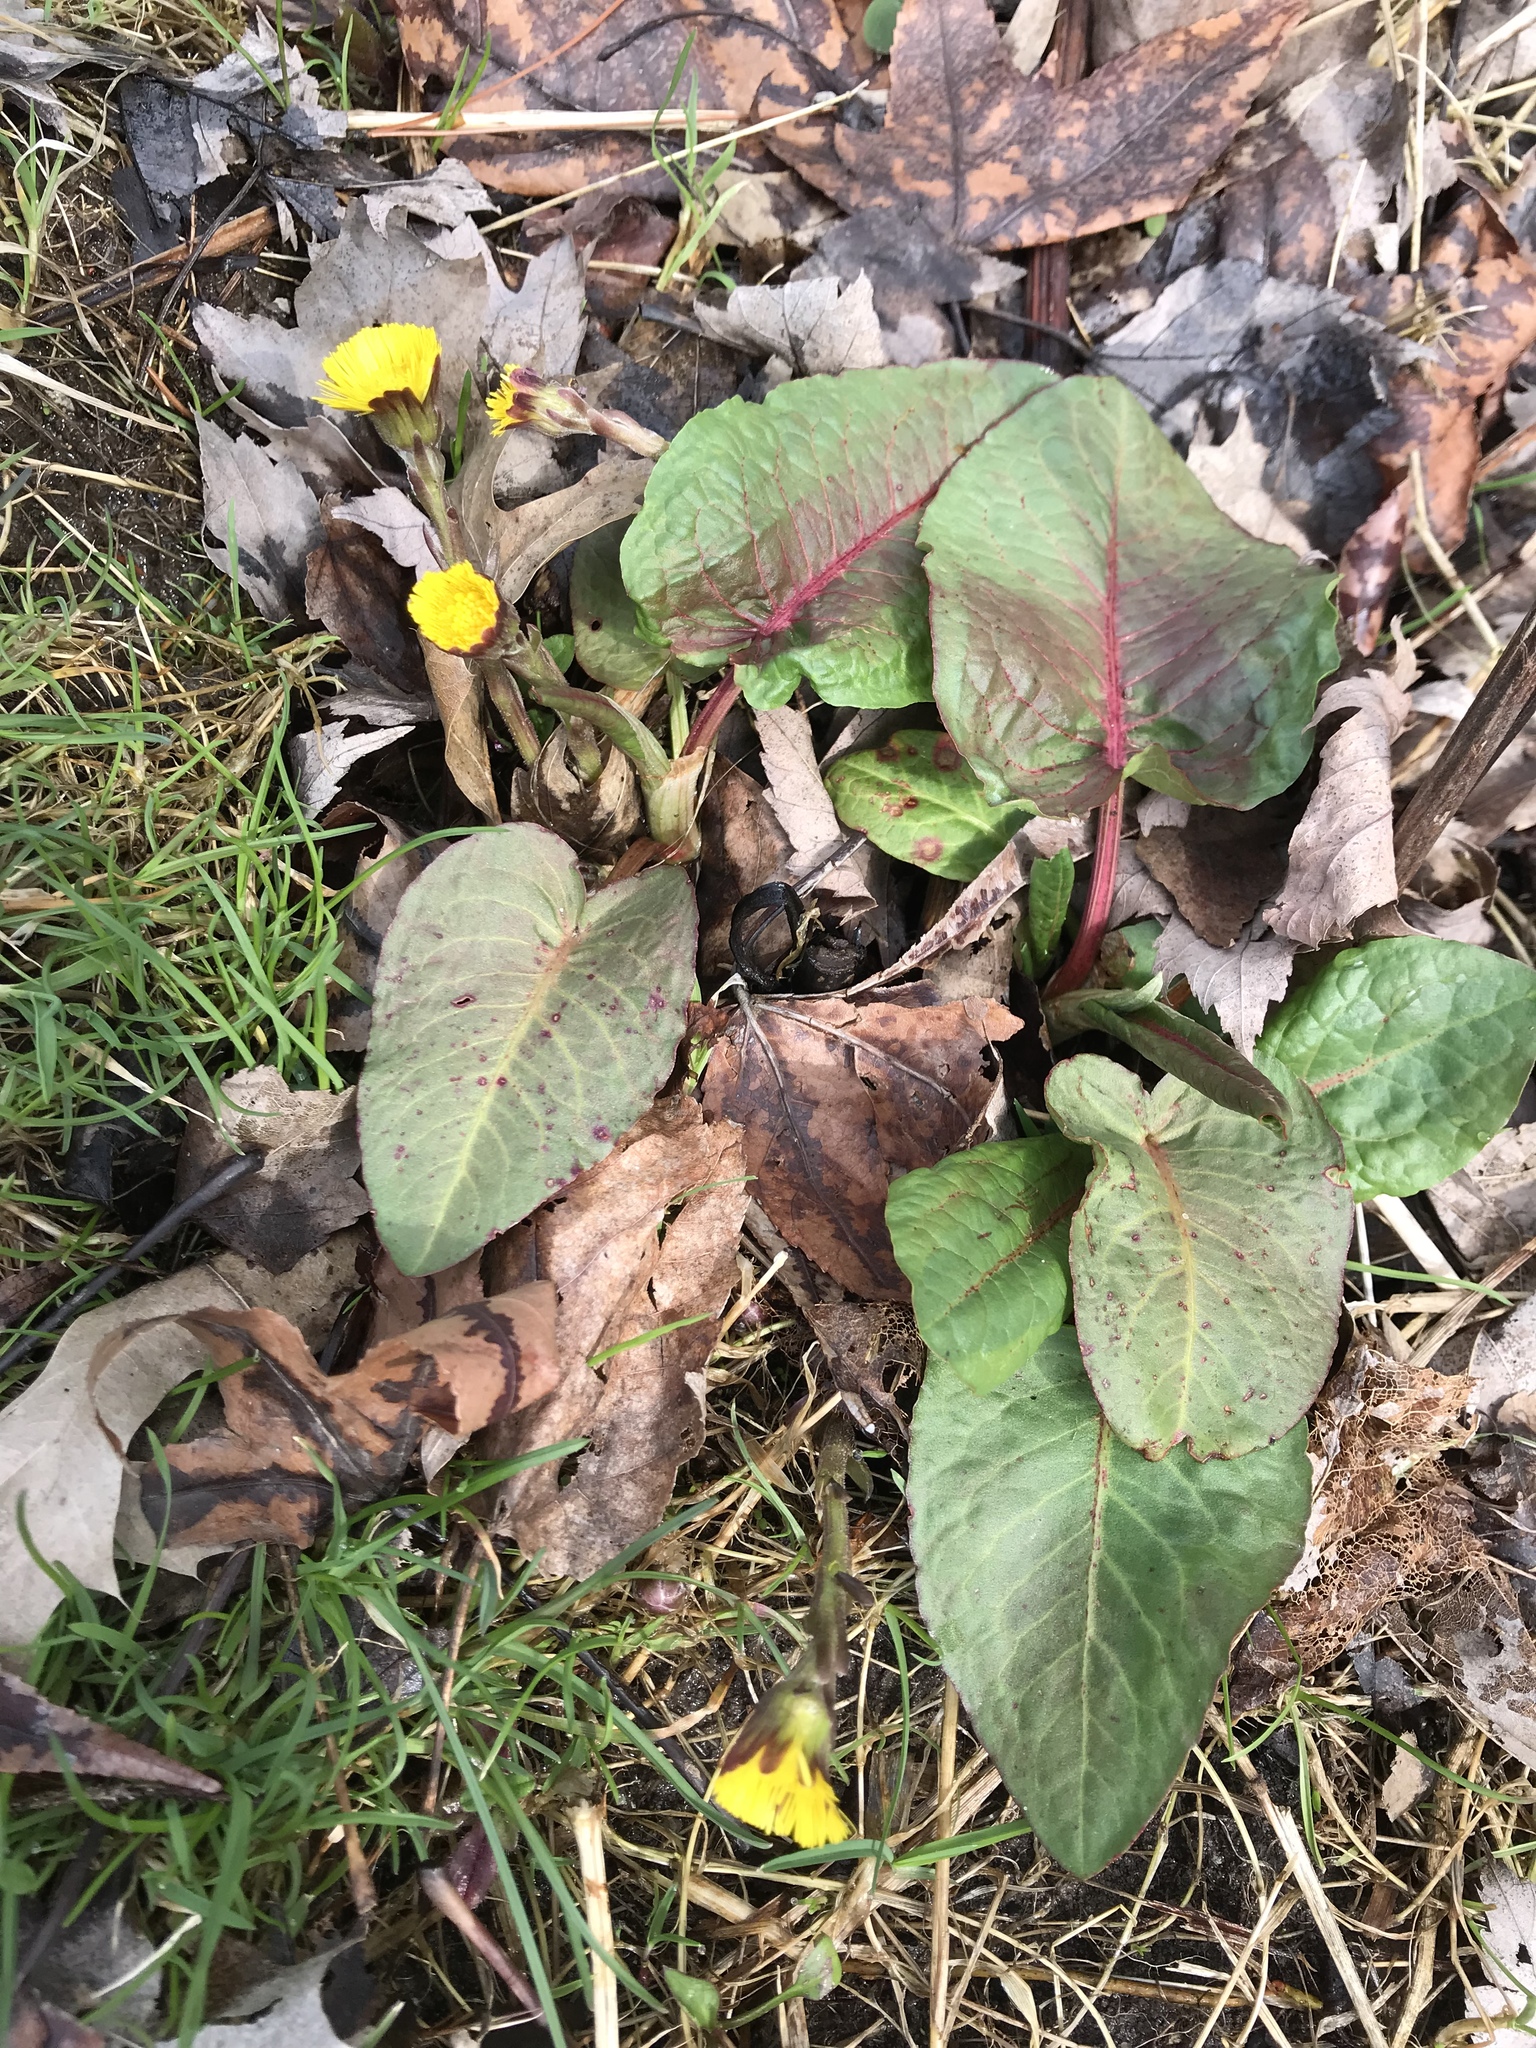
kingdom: Plantae
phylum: Tracheophyta
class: Magnoliopsida
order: Caryophyllales
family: Polygonaceae
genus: Rumex
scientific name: Rumex obtusifolius
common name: Bitter dock
